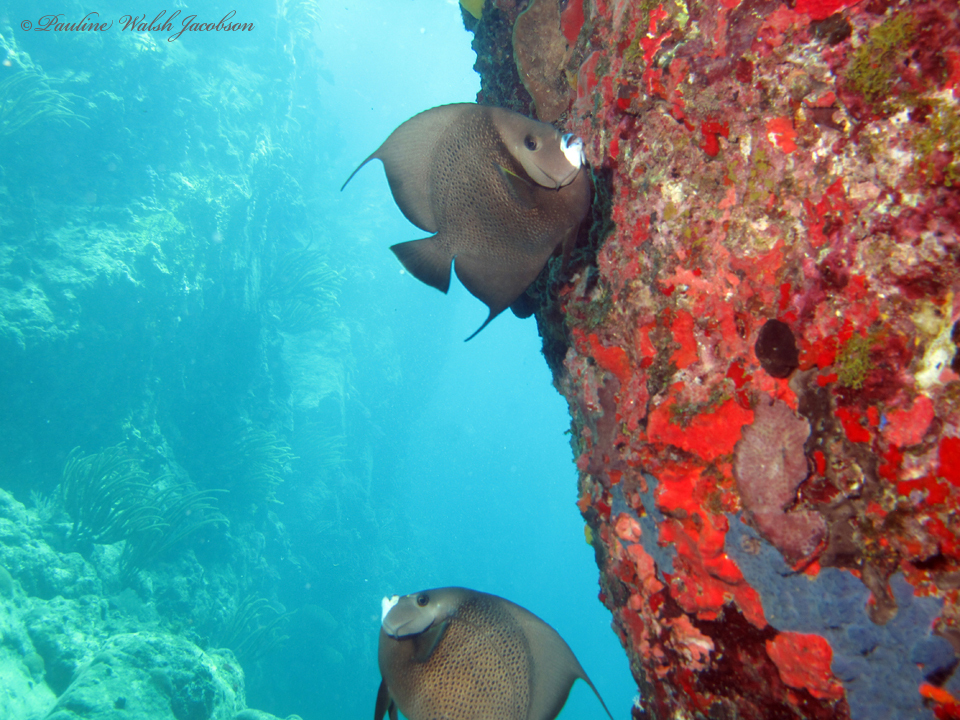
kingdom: Animalia
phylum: Chordata
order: Perciformes
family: Pomacanthidae
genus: Pomacanthus
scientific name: Pomacanthus arcuatus
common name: Gray angelfish
